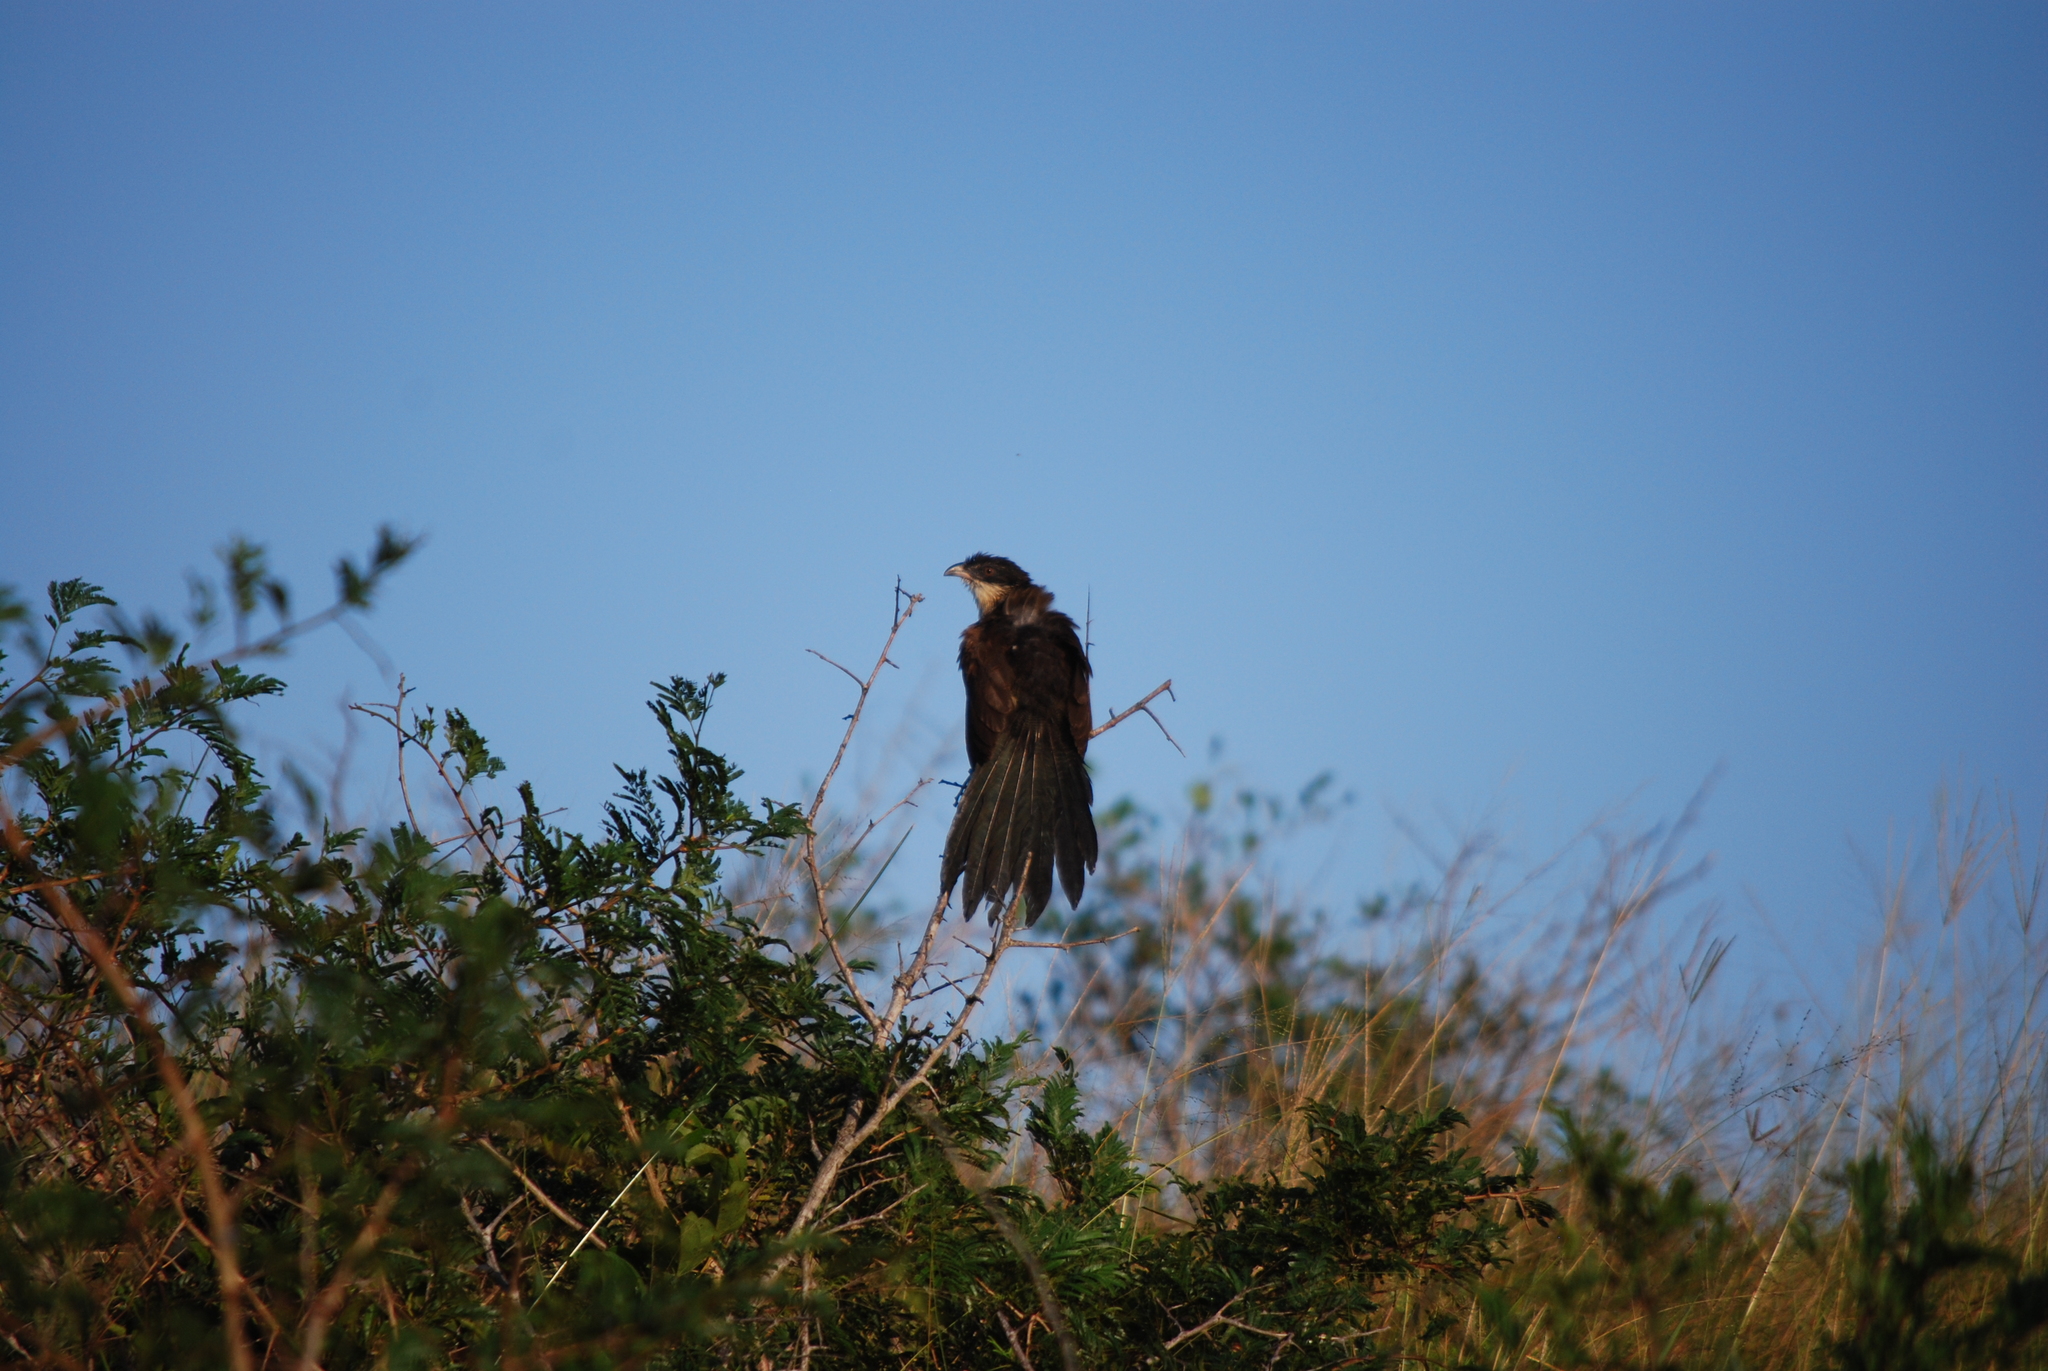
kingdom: Animalia
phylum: Chordata
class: Aves
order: Cuculiformes
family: Cuculidae
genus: Centropus
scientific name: Centropus superciliosus
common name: White-browed coucal
